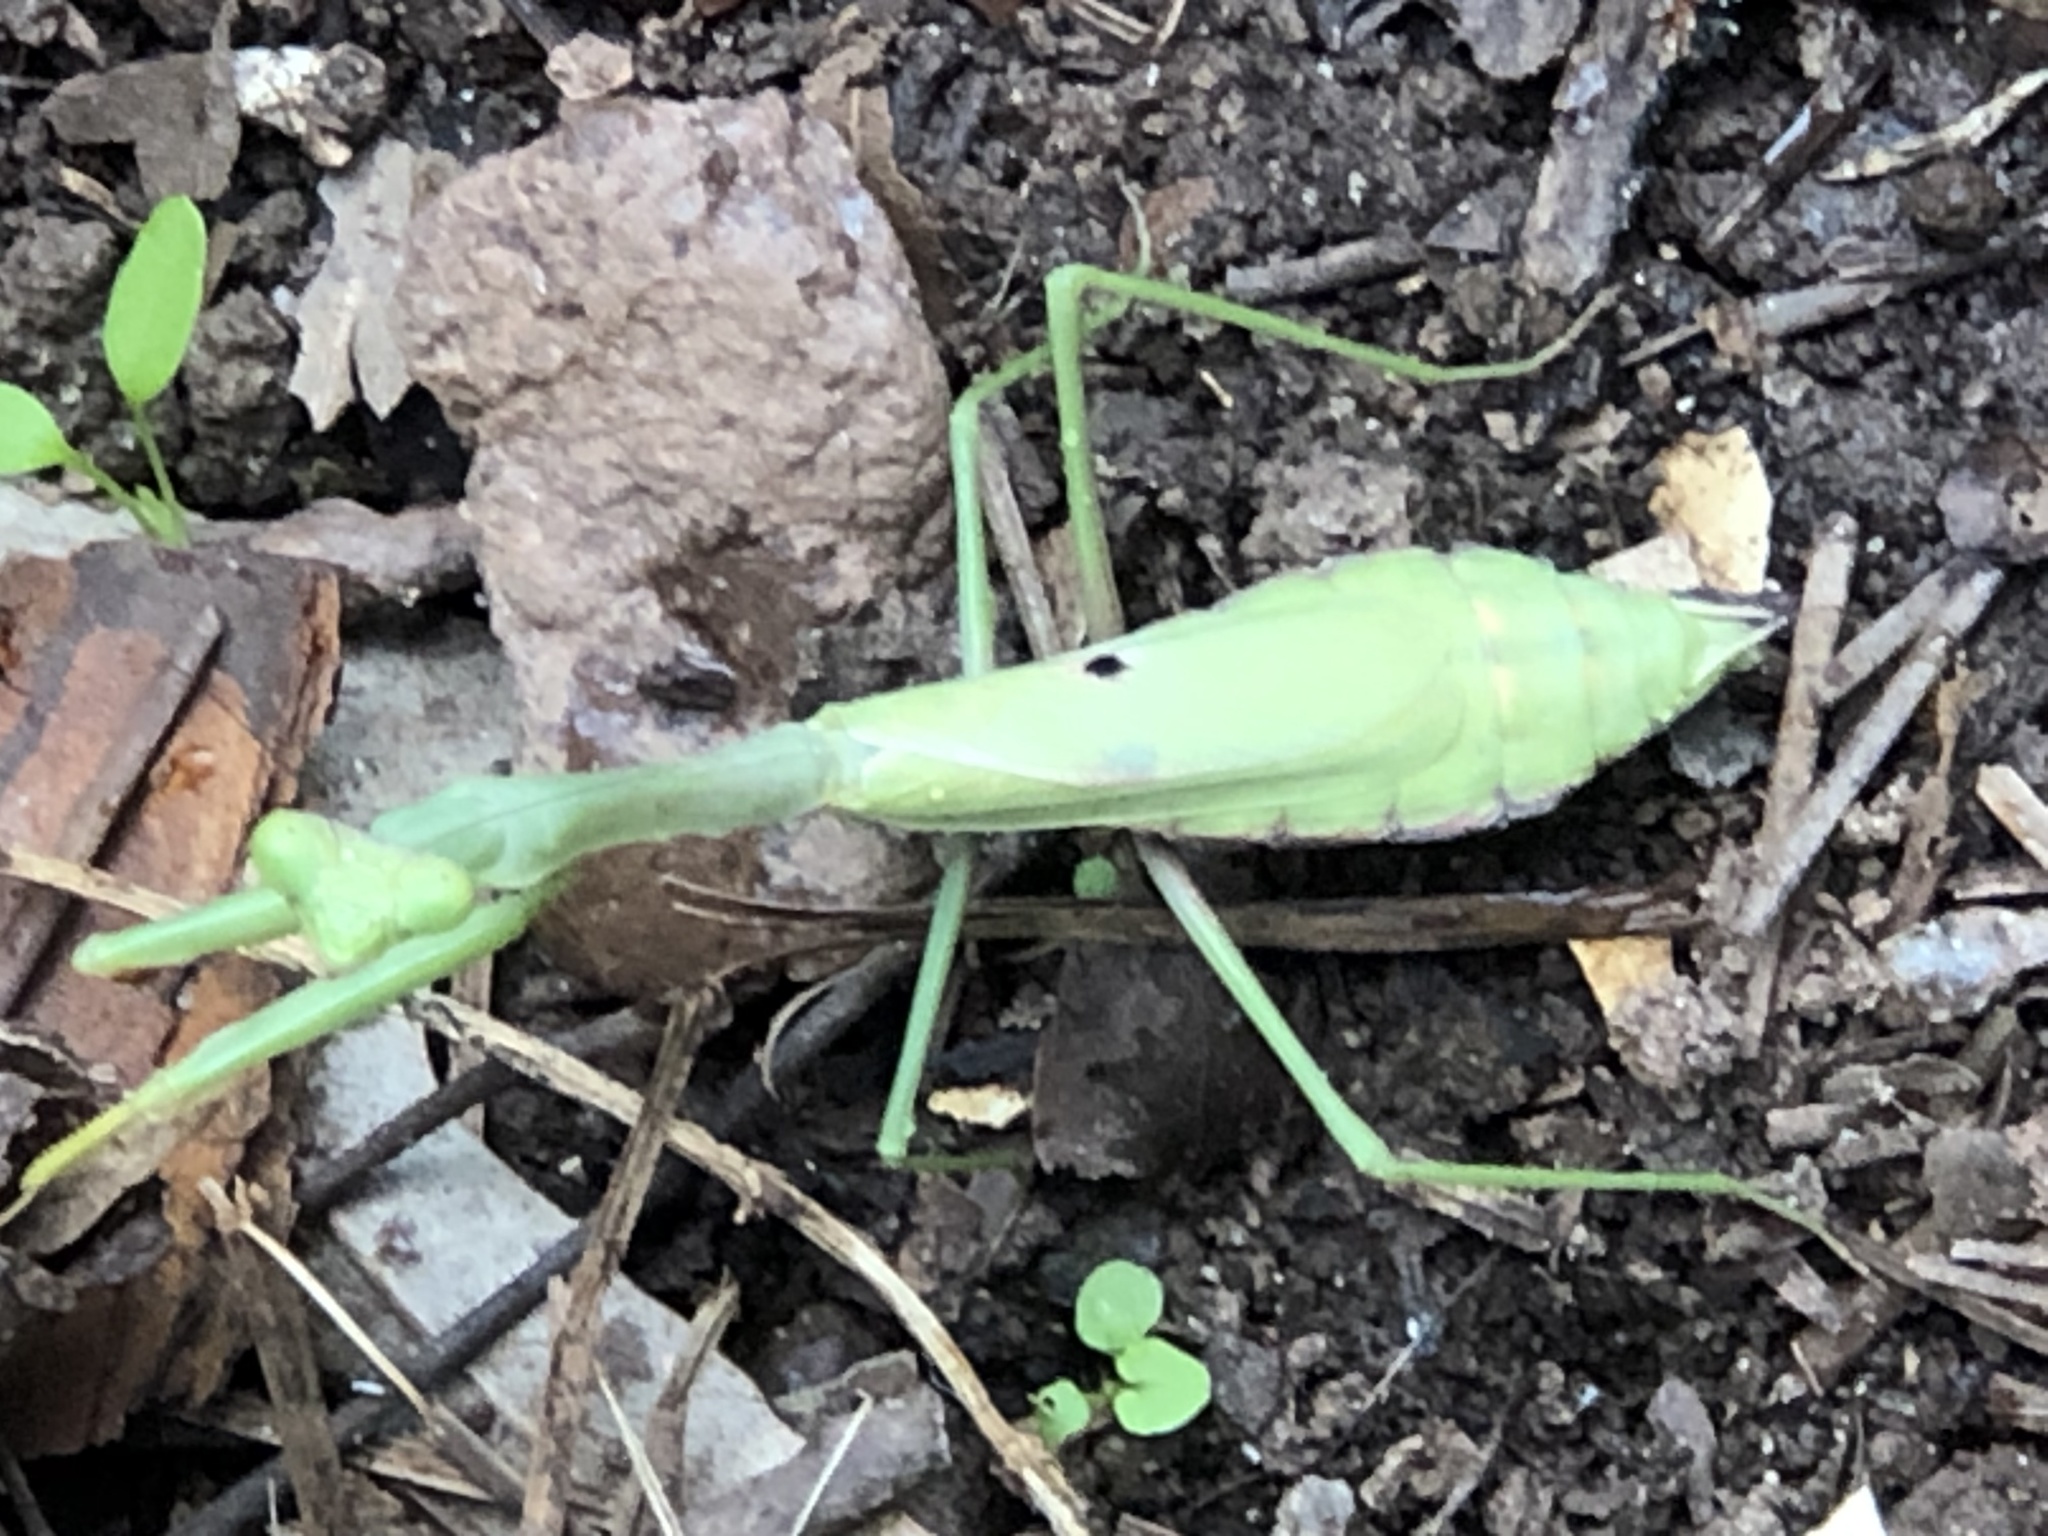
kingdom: Animalia
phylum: Arthropoda
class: Insecta
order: Mantodea
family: Mantidae
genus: Stagmomantis
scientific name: Stagmomantis carolina
